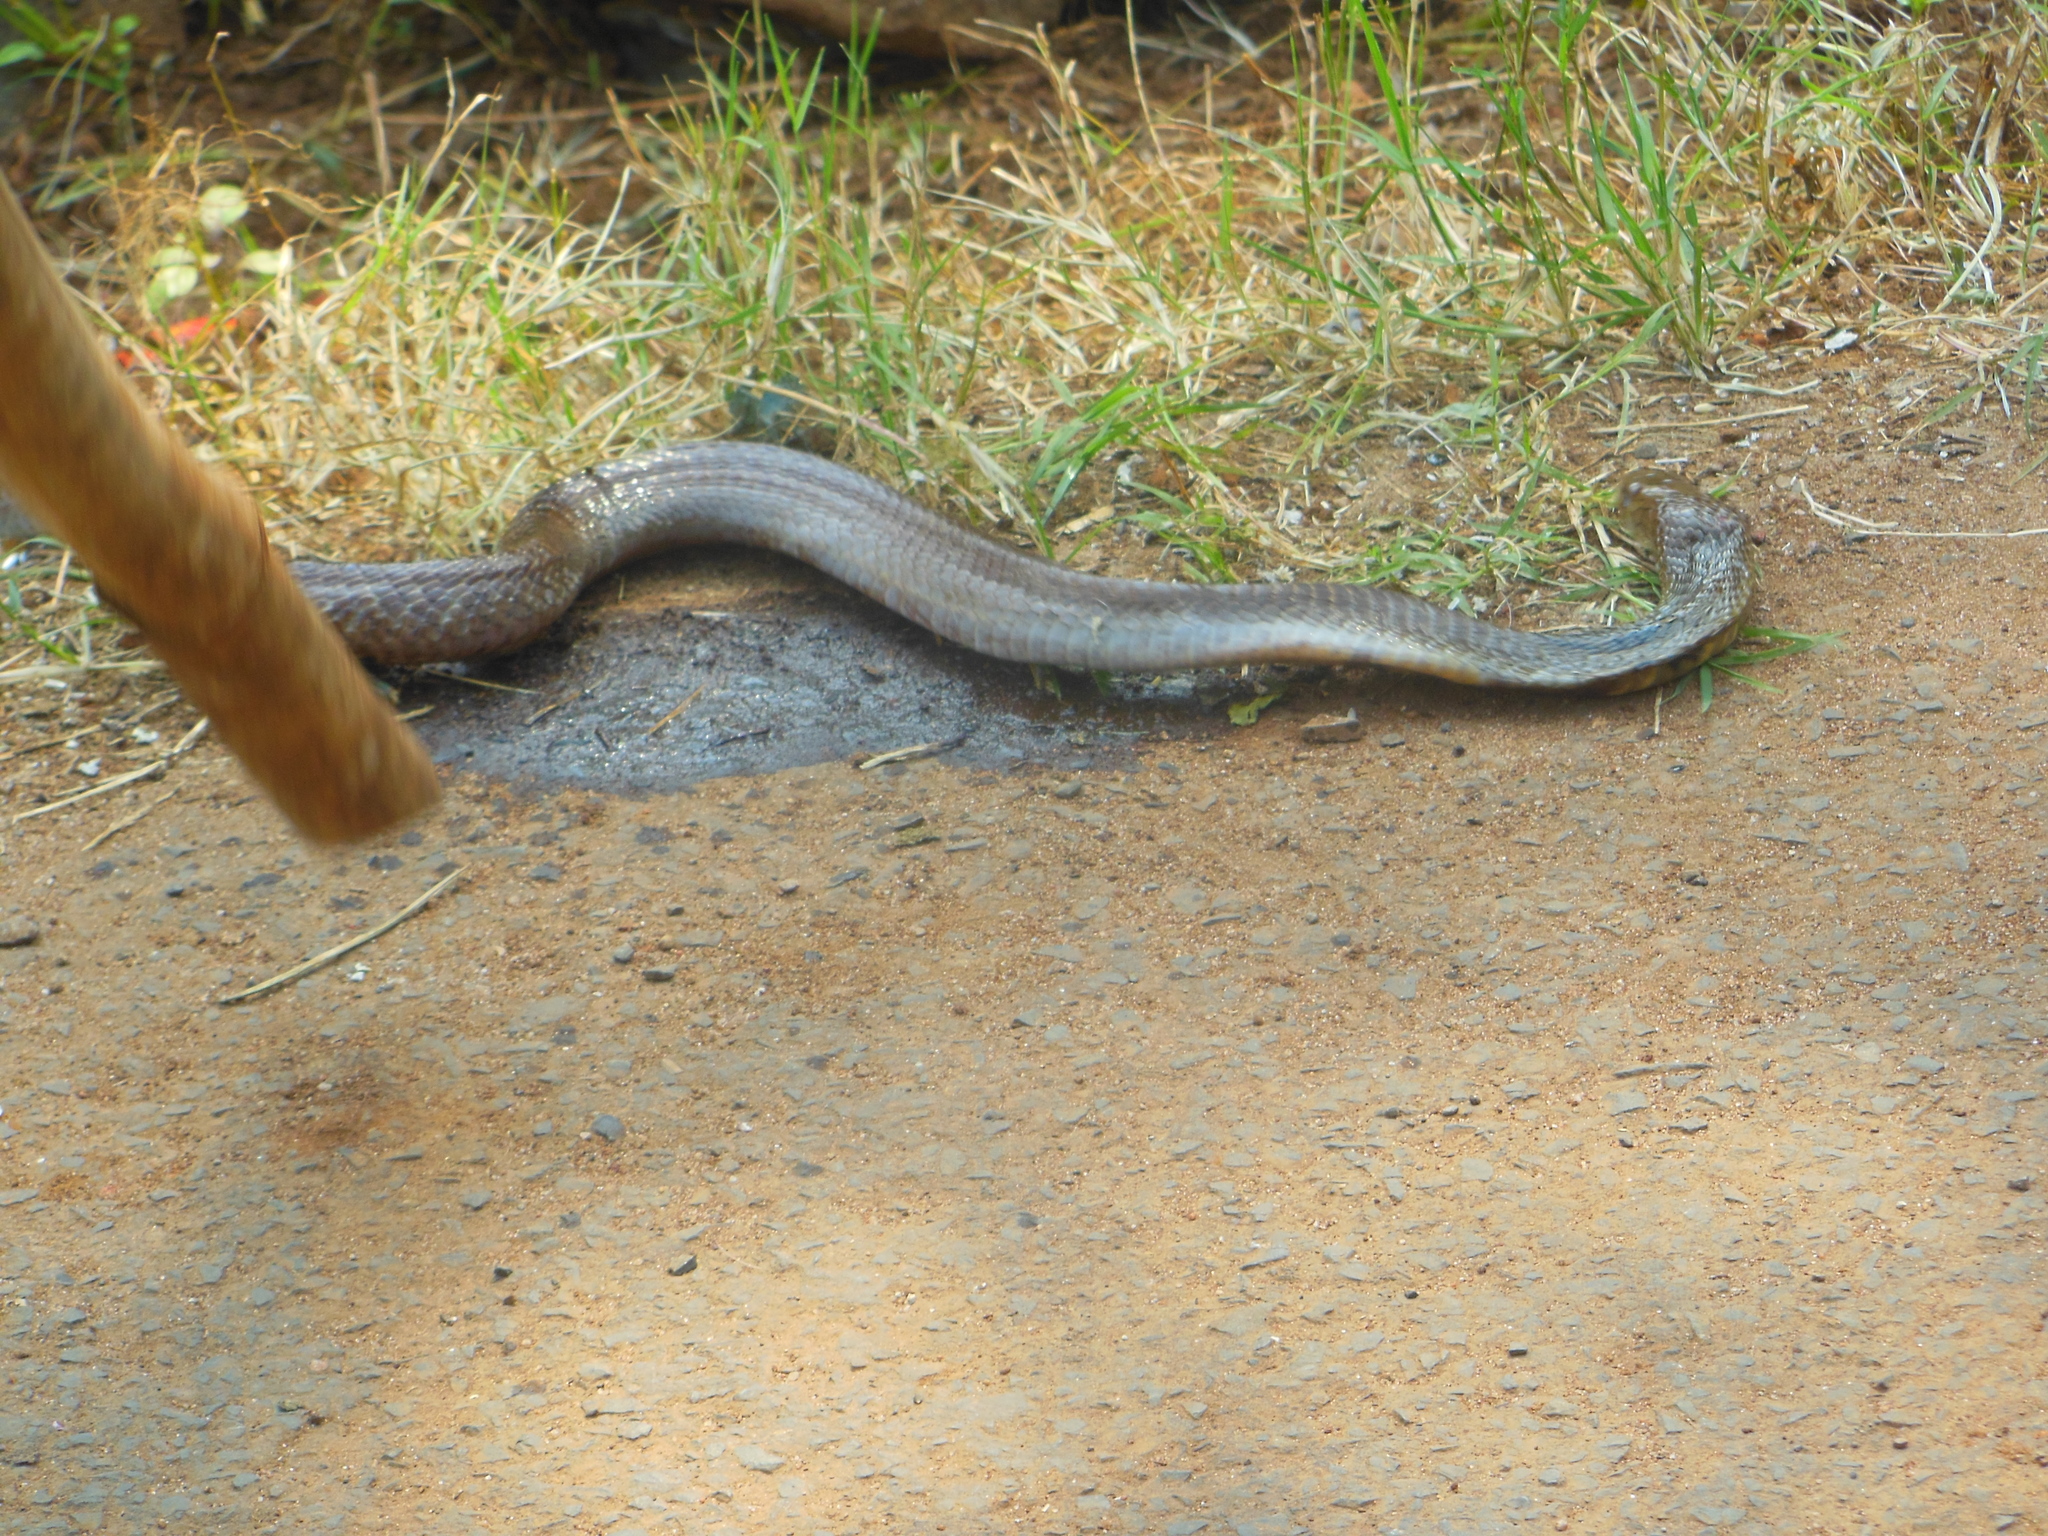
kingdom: Animalia
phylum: Chordata
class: Squamata
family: Elapidae
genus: Naja
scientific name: Naja naja
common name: Indian cobra
